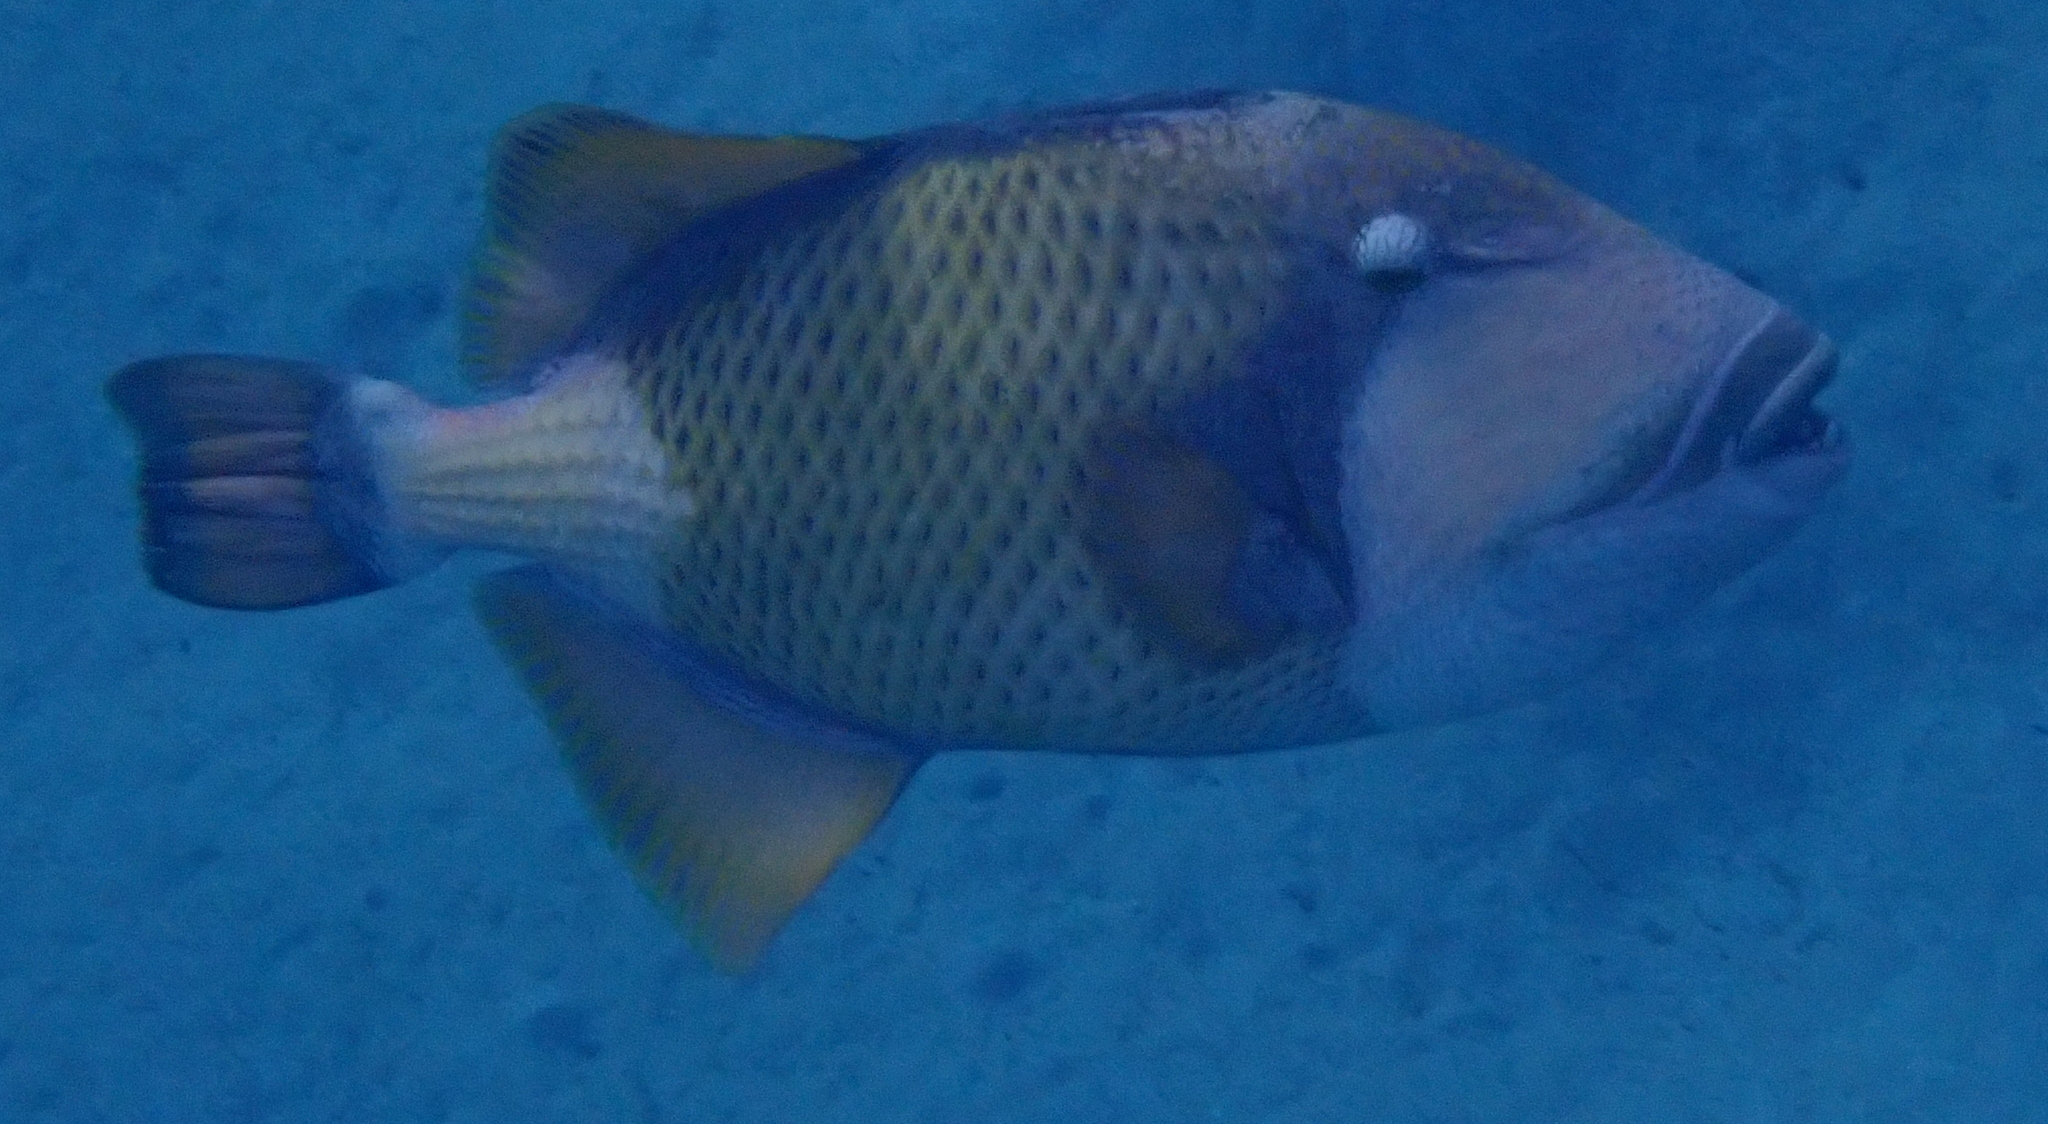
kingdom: Animalia
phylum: Chordata
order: Tetraodontiformes
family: Balistidae
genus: Balistoides
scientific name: Balistoides viridescens
